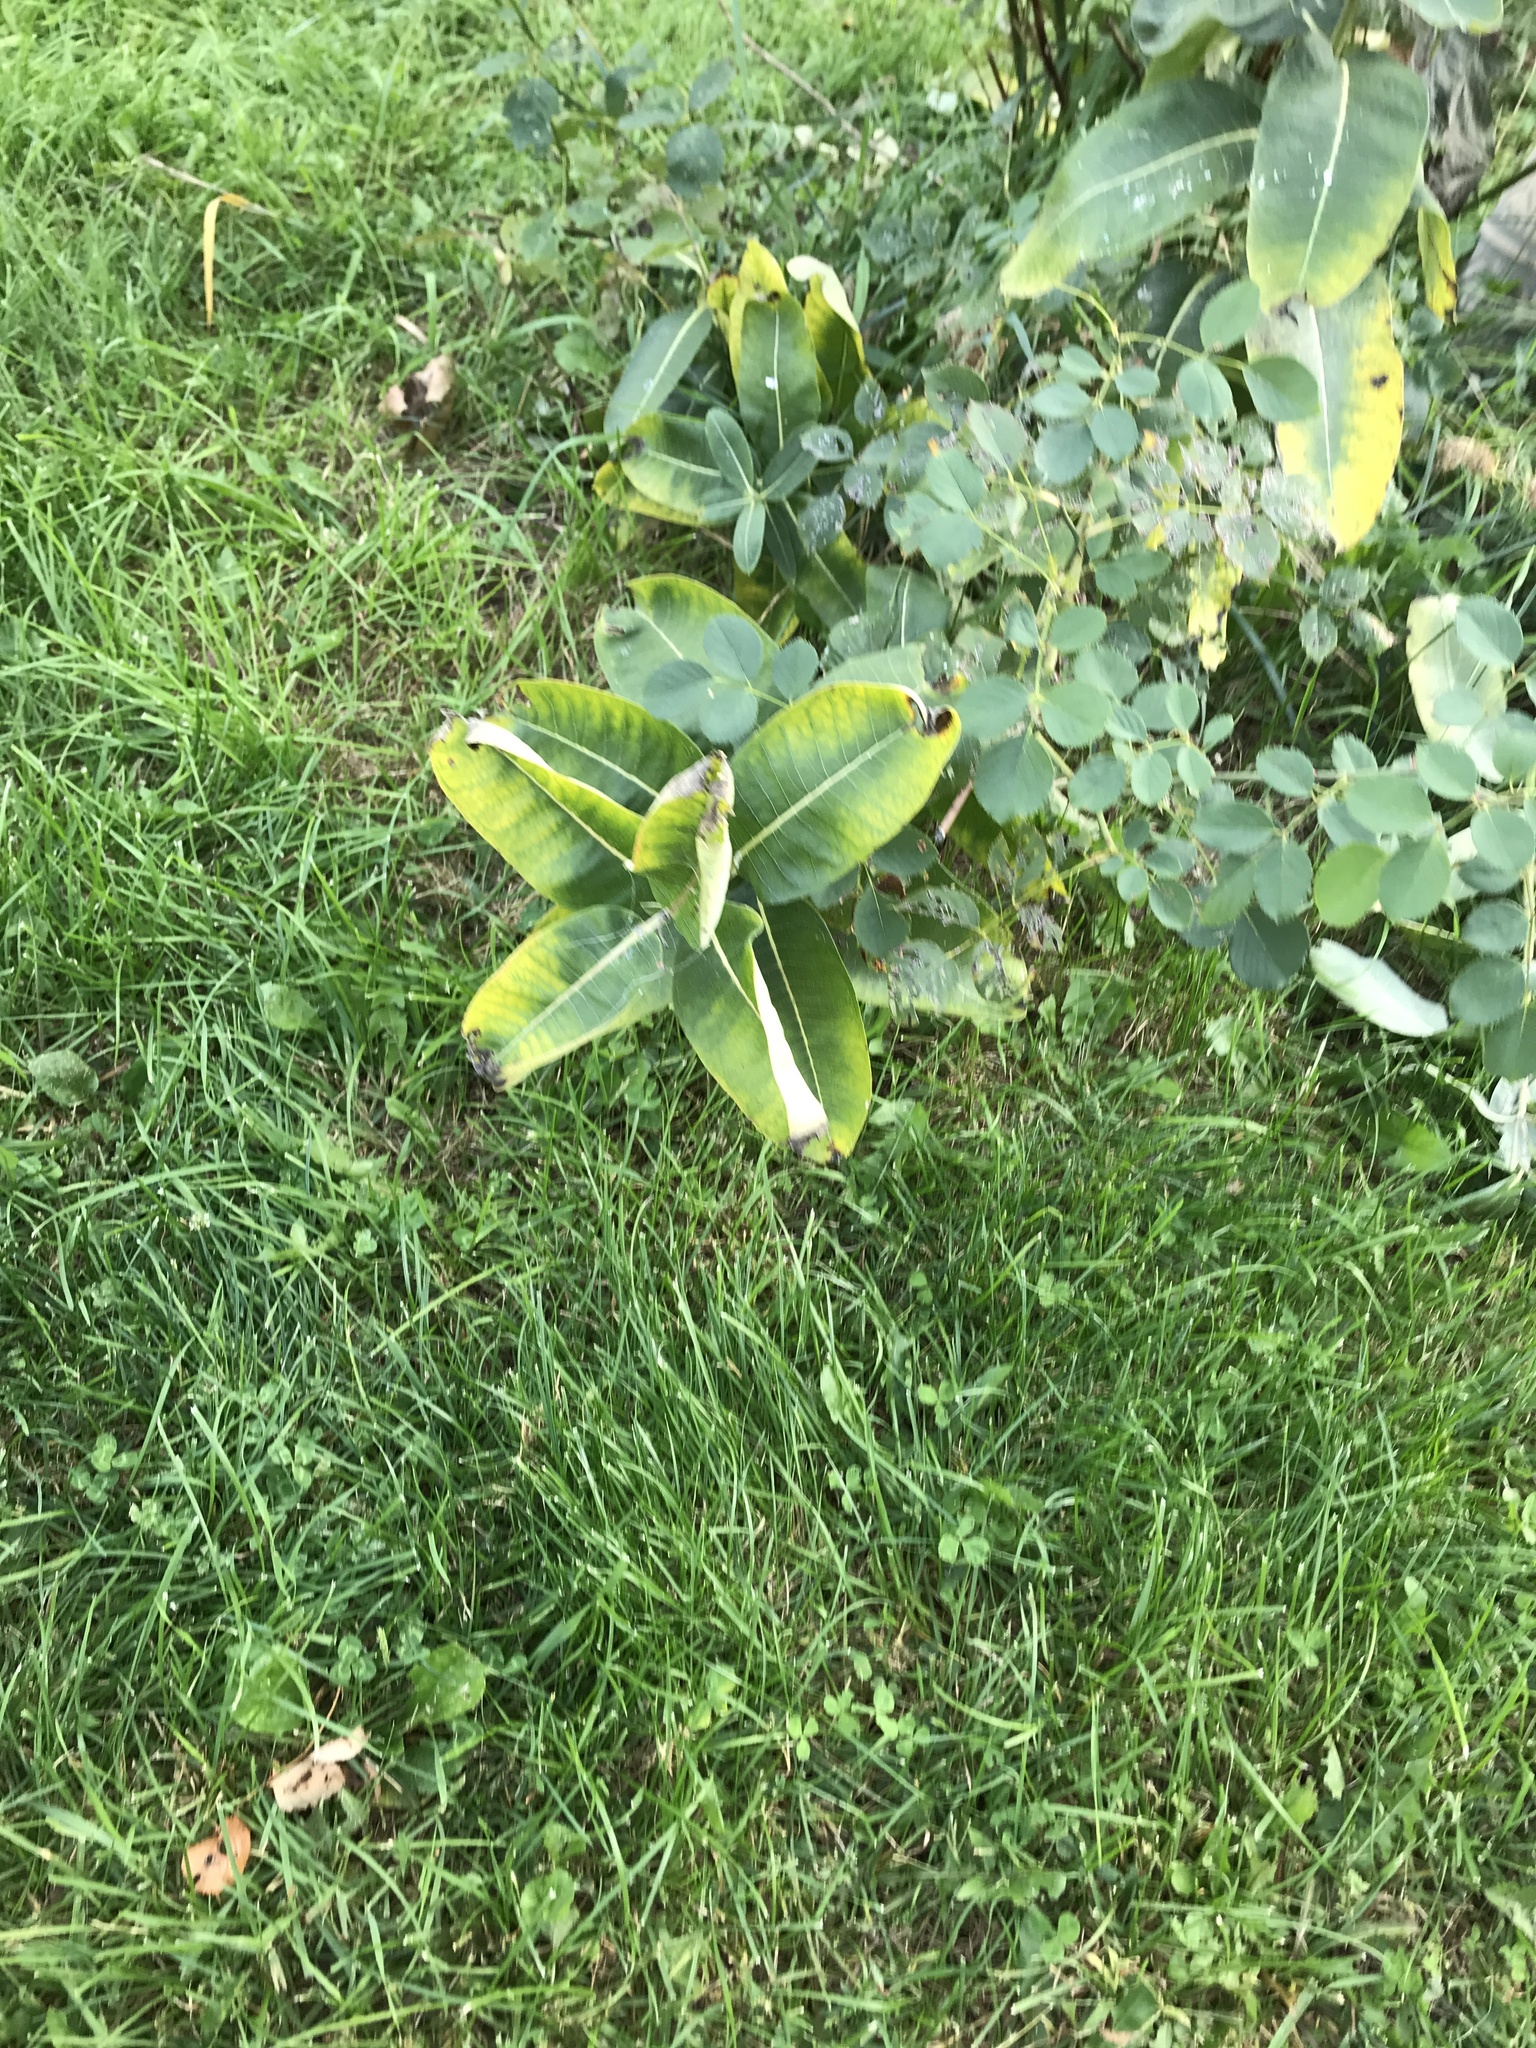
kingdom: Plantae
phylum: Tracheophyta
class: Magnoliopsida
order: Gentianales
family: Apocynaceae
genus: Asclepias
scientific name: Asclepias syriaca
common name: Common milkweed
